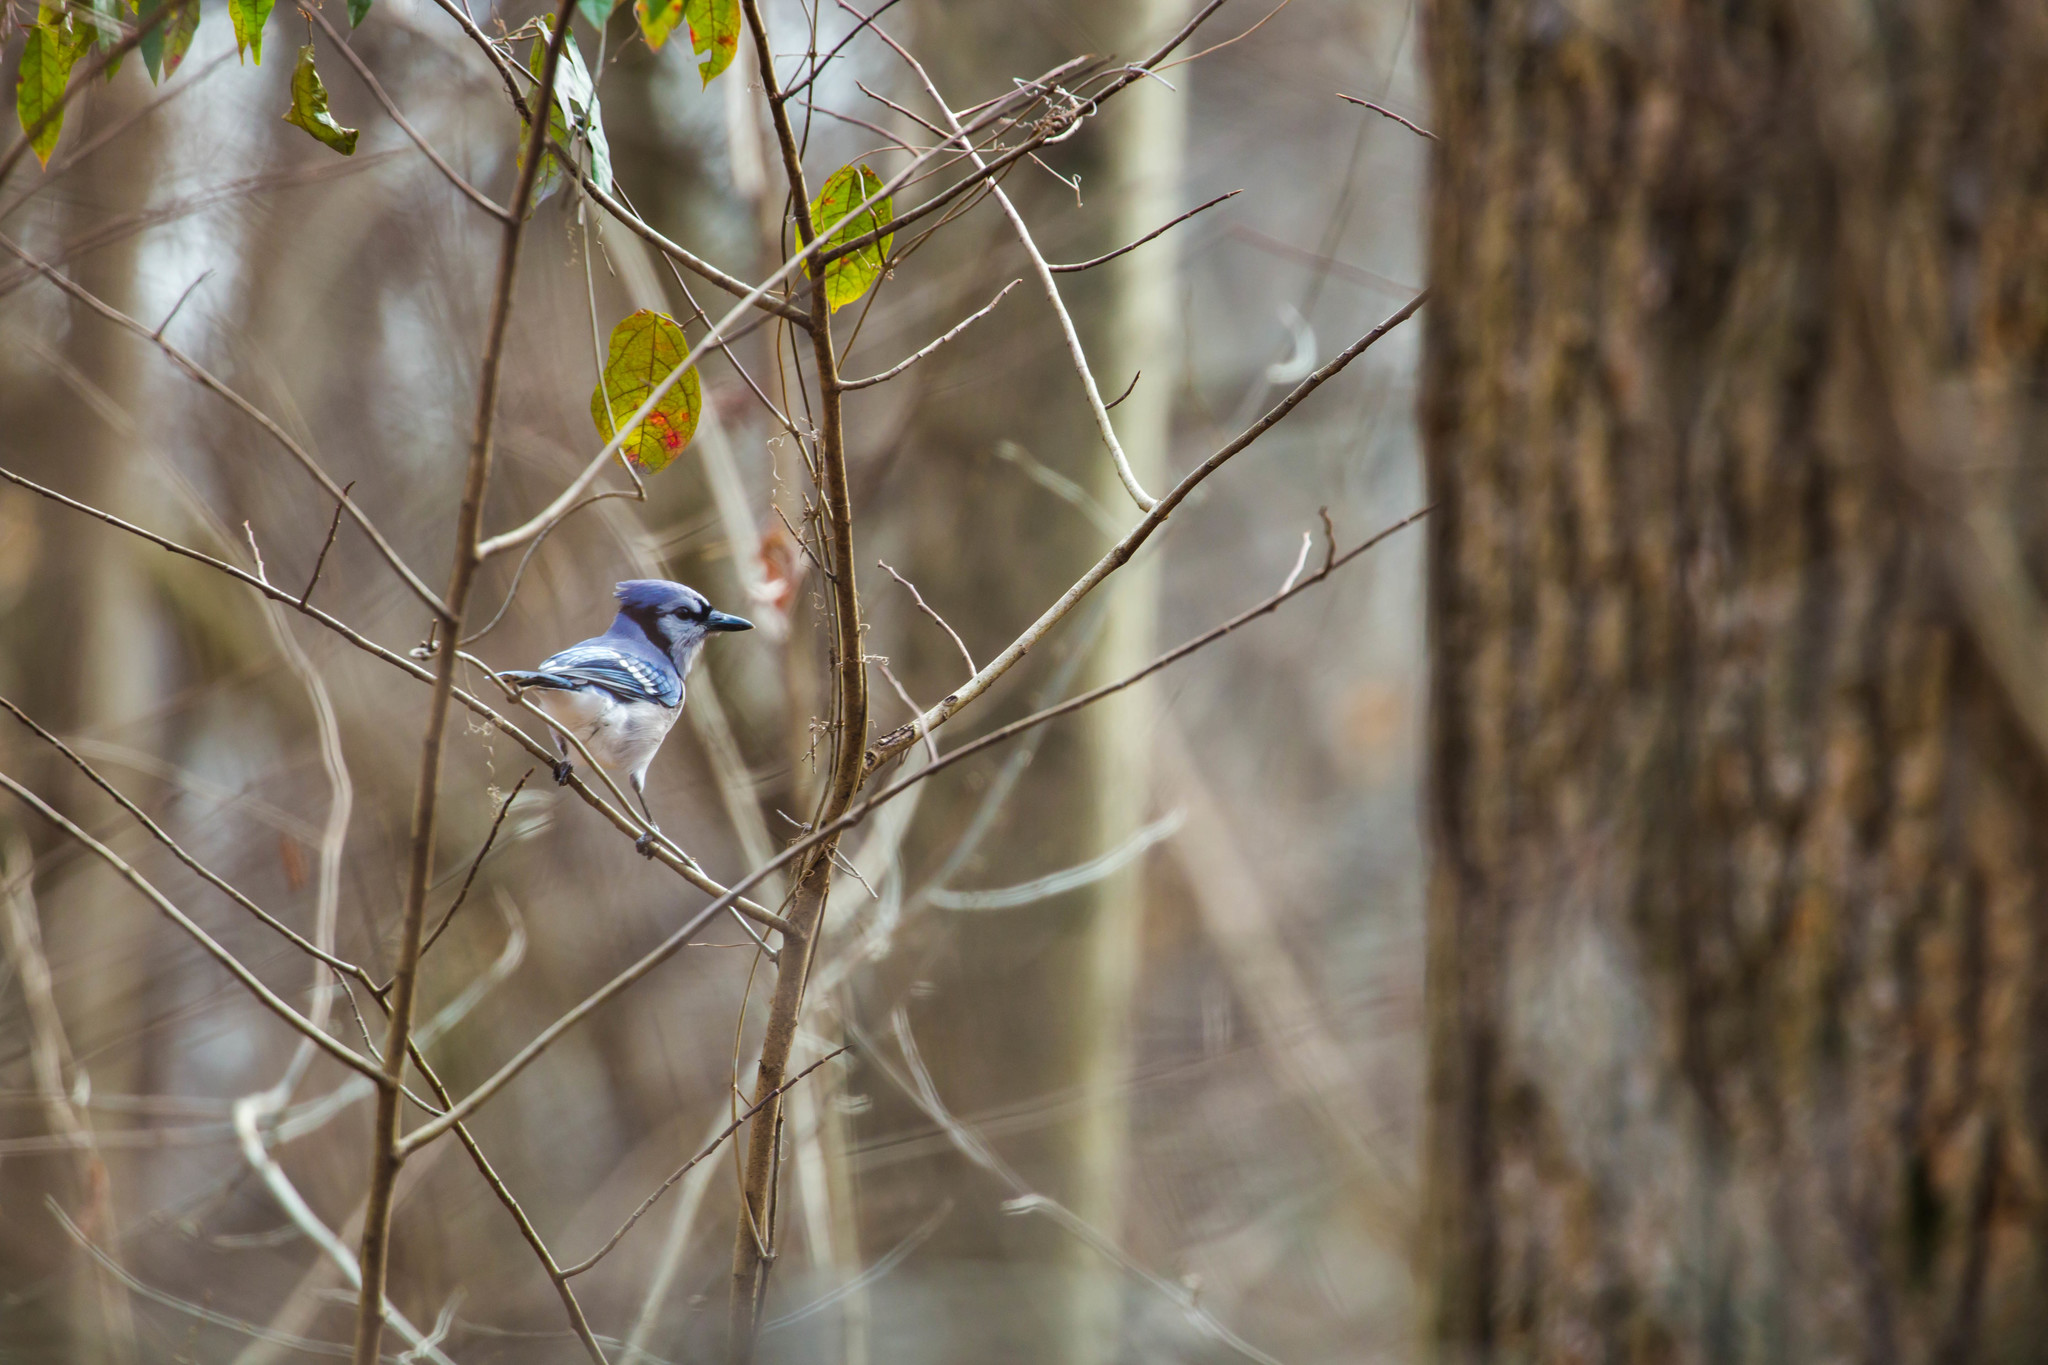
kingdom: Animalia
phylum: Chordata
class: Aves
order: Passeriformes
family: Corvidae
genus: Cyanocitta
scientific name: Cyanocitta cristata
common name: Blue jay
